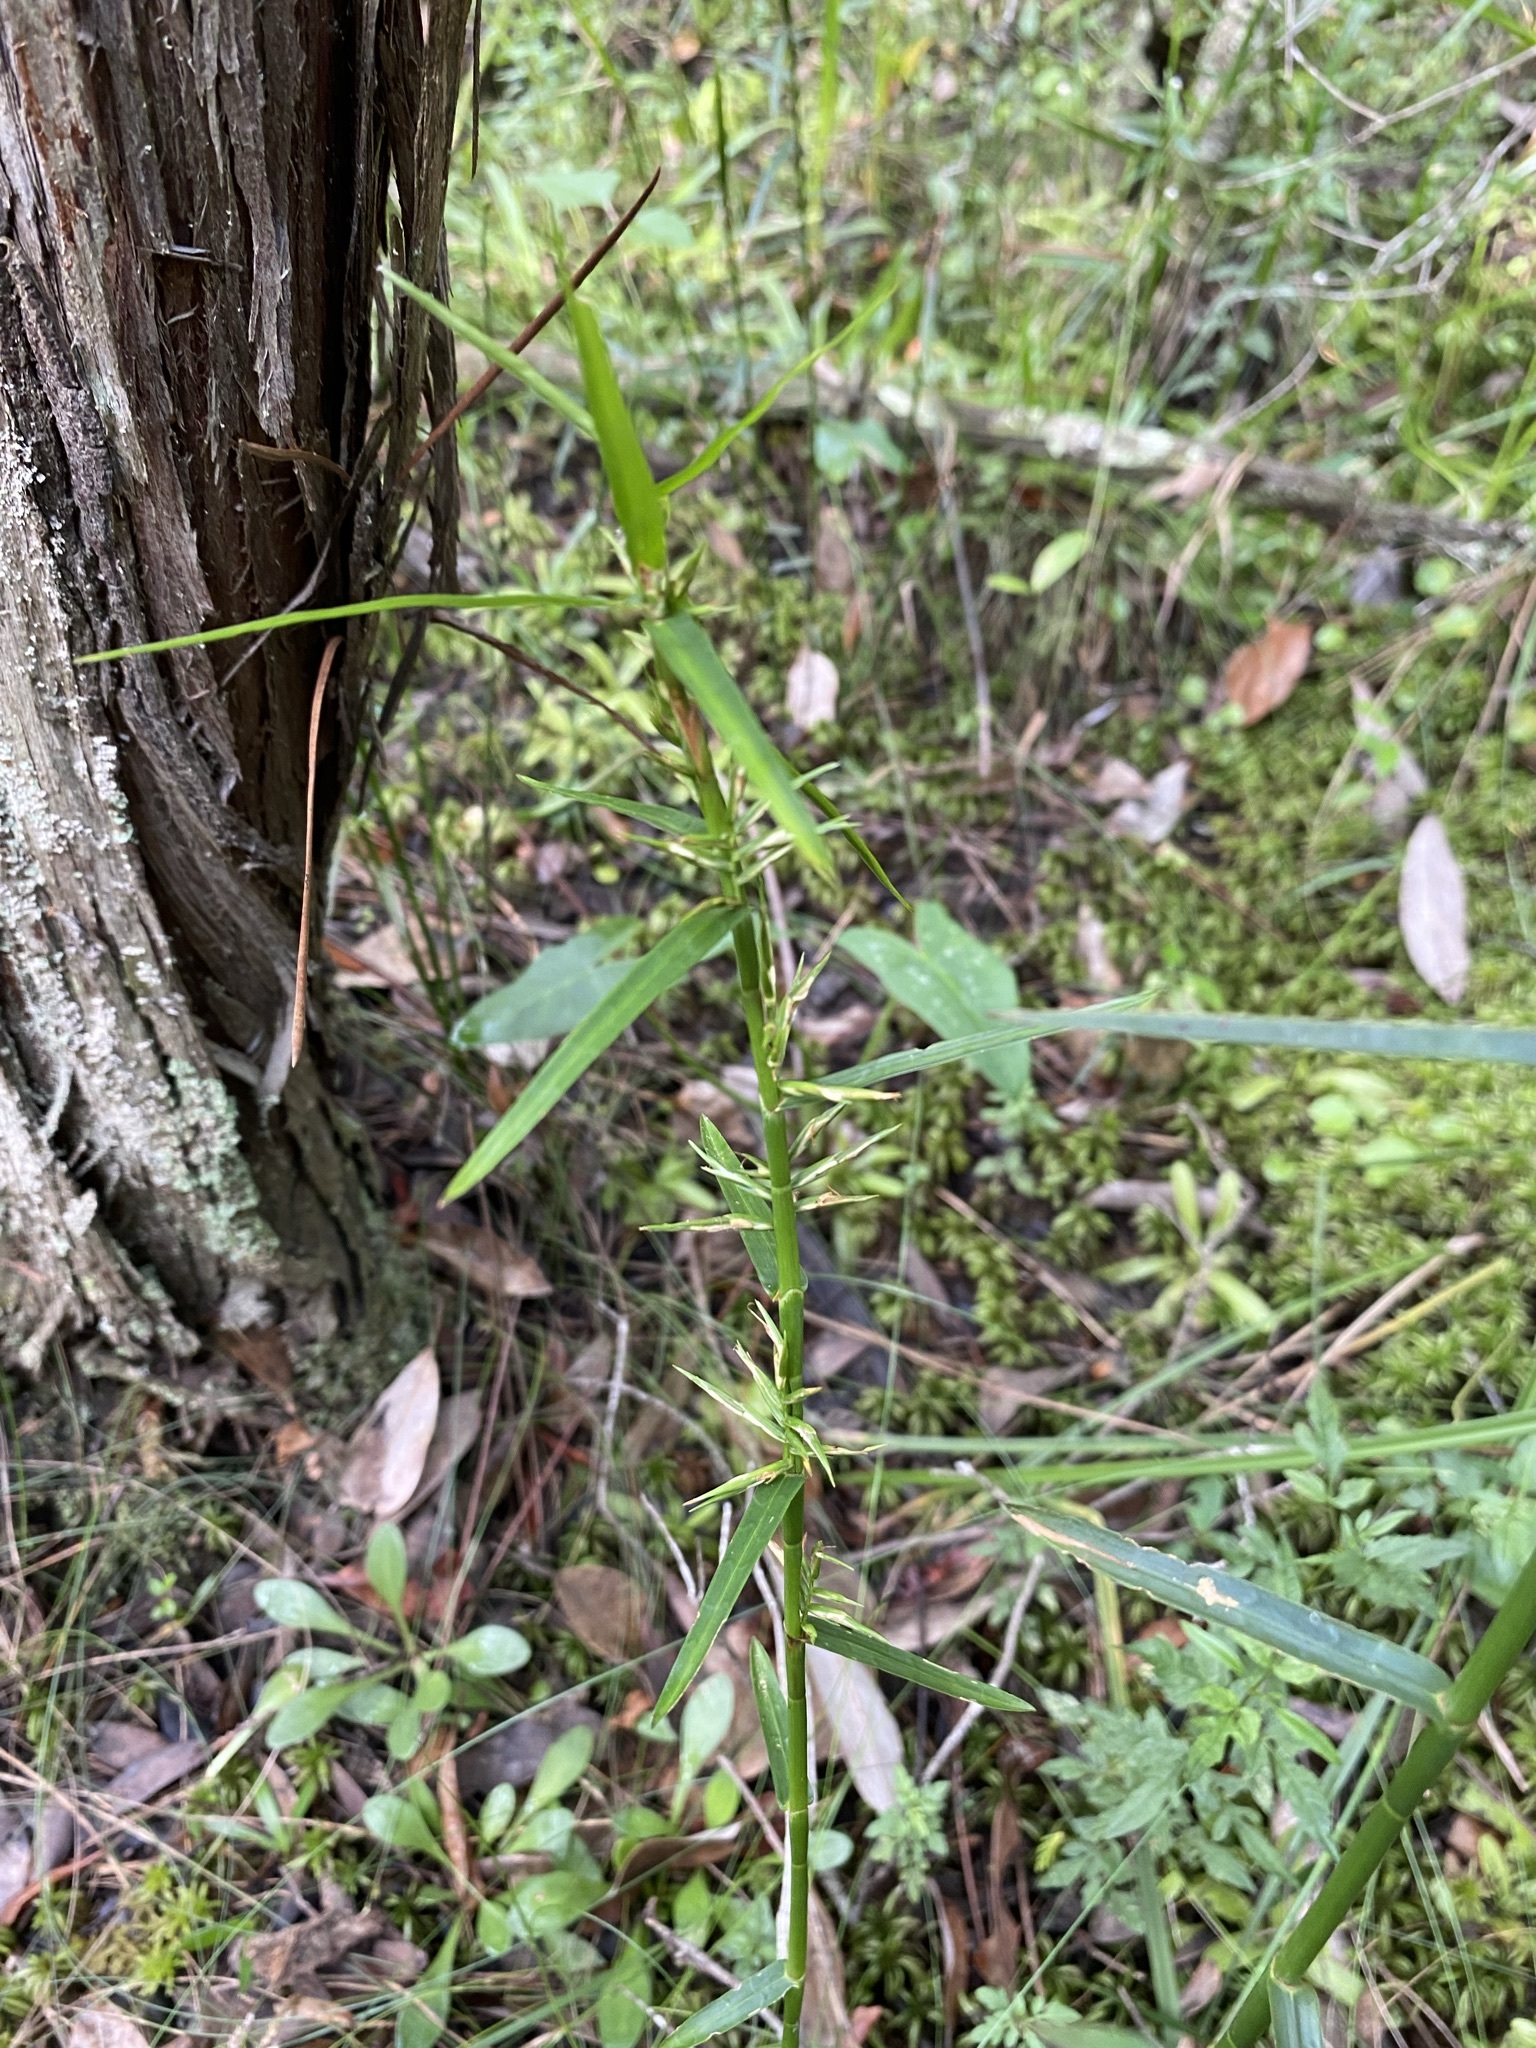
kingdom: Plantae
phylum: Tracheophyta
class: Liliopsida
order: Poales
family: Cyperaceae
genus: Dulichium
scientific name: Dulichium arundinaceum
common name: Three-way sedge
